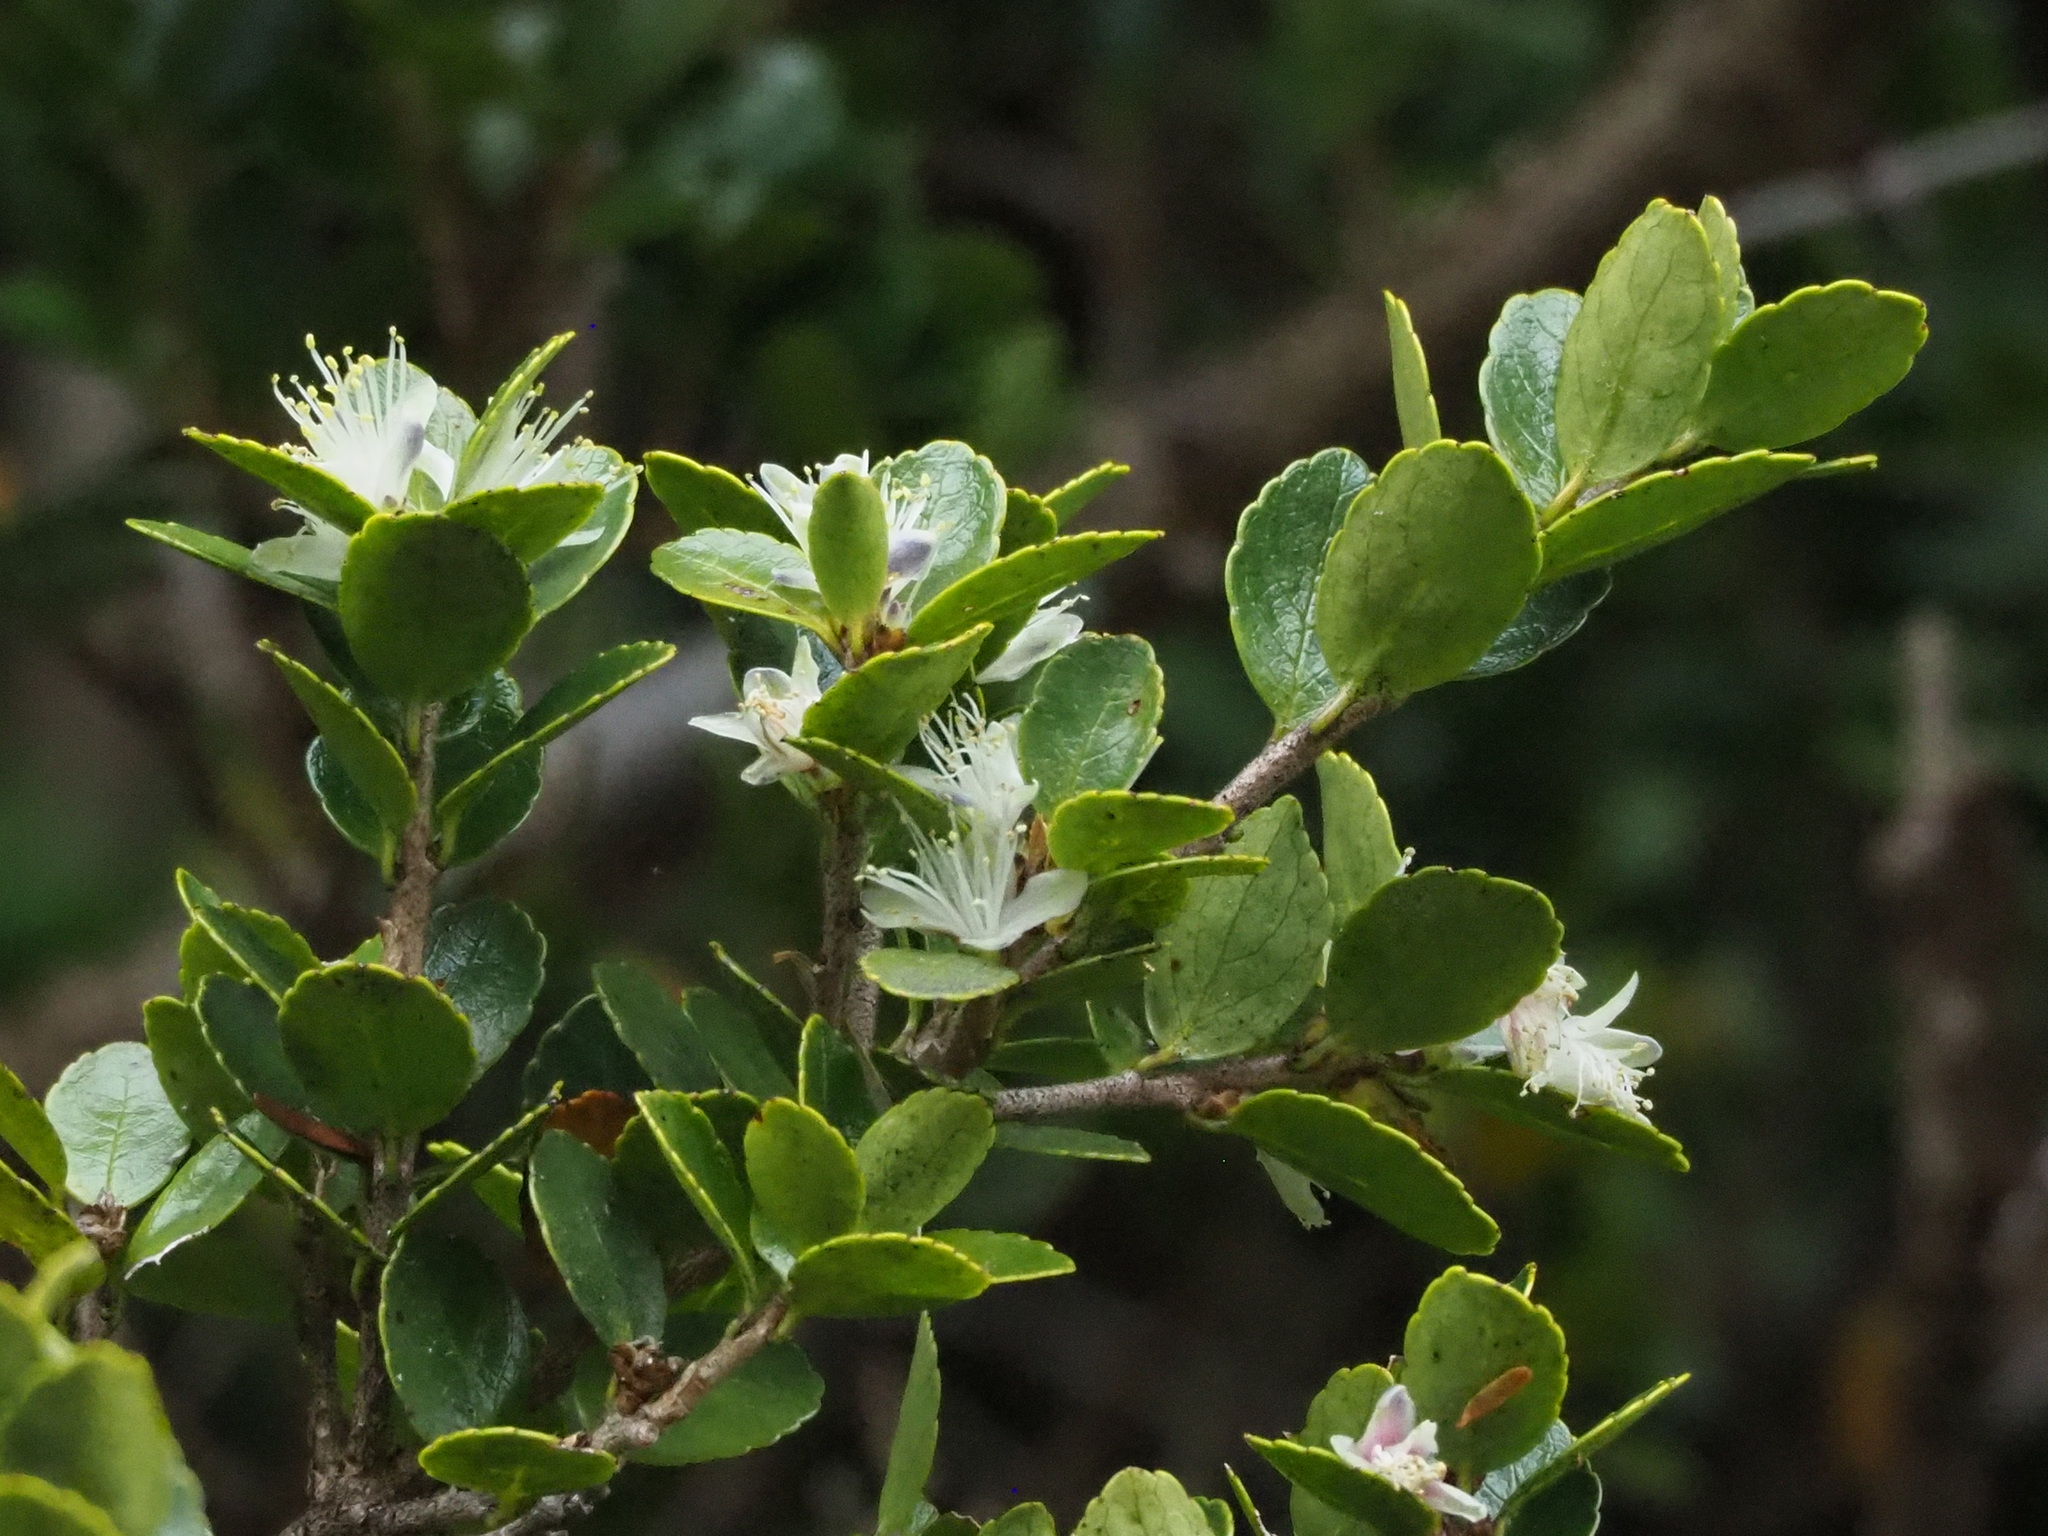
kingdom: Plantae
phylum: Tracheophyta
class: Magnoliopsida
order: Ericales
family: Symplocaceae
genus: Symplocos
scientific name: Symplocos nokoensis
